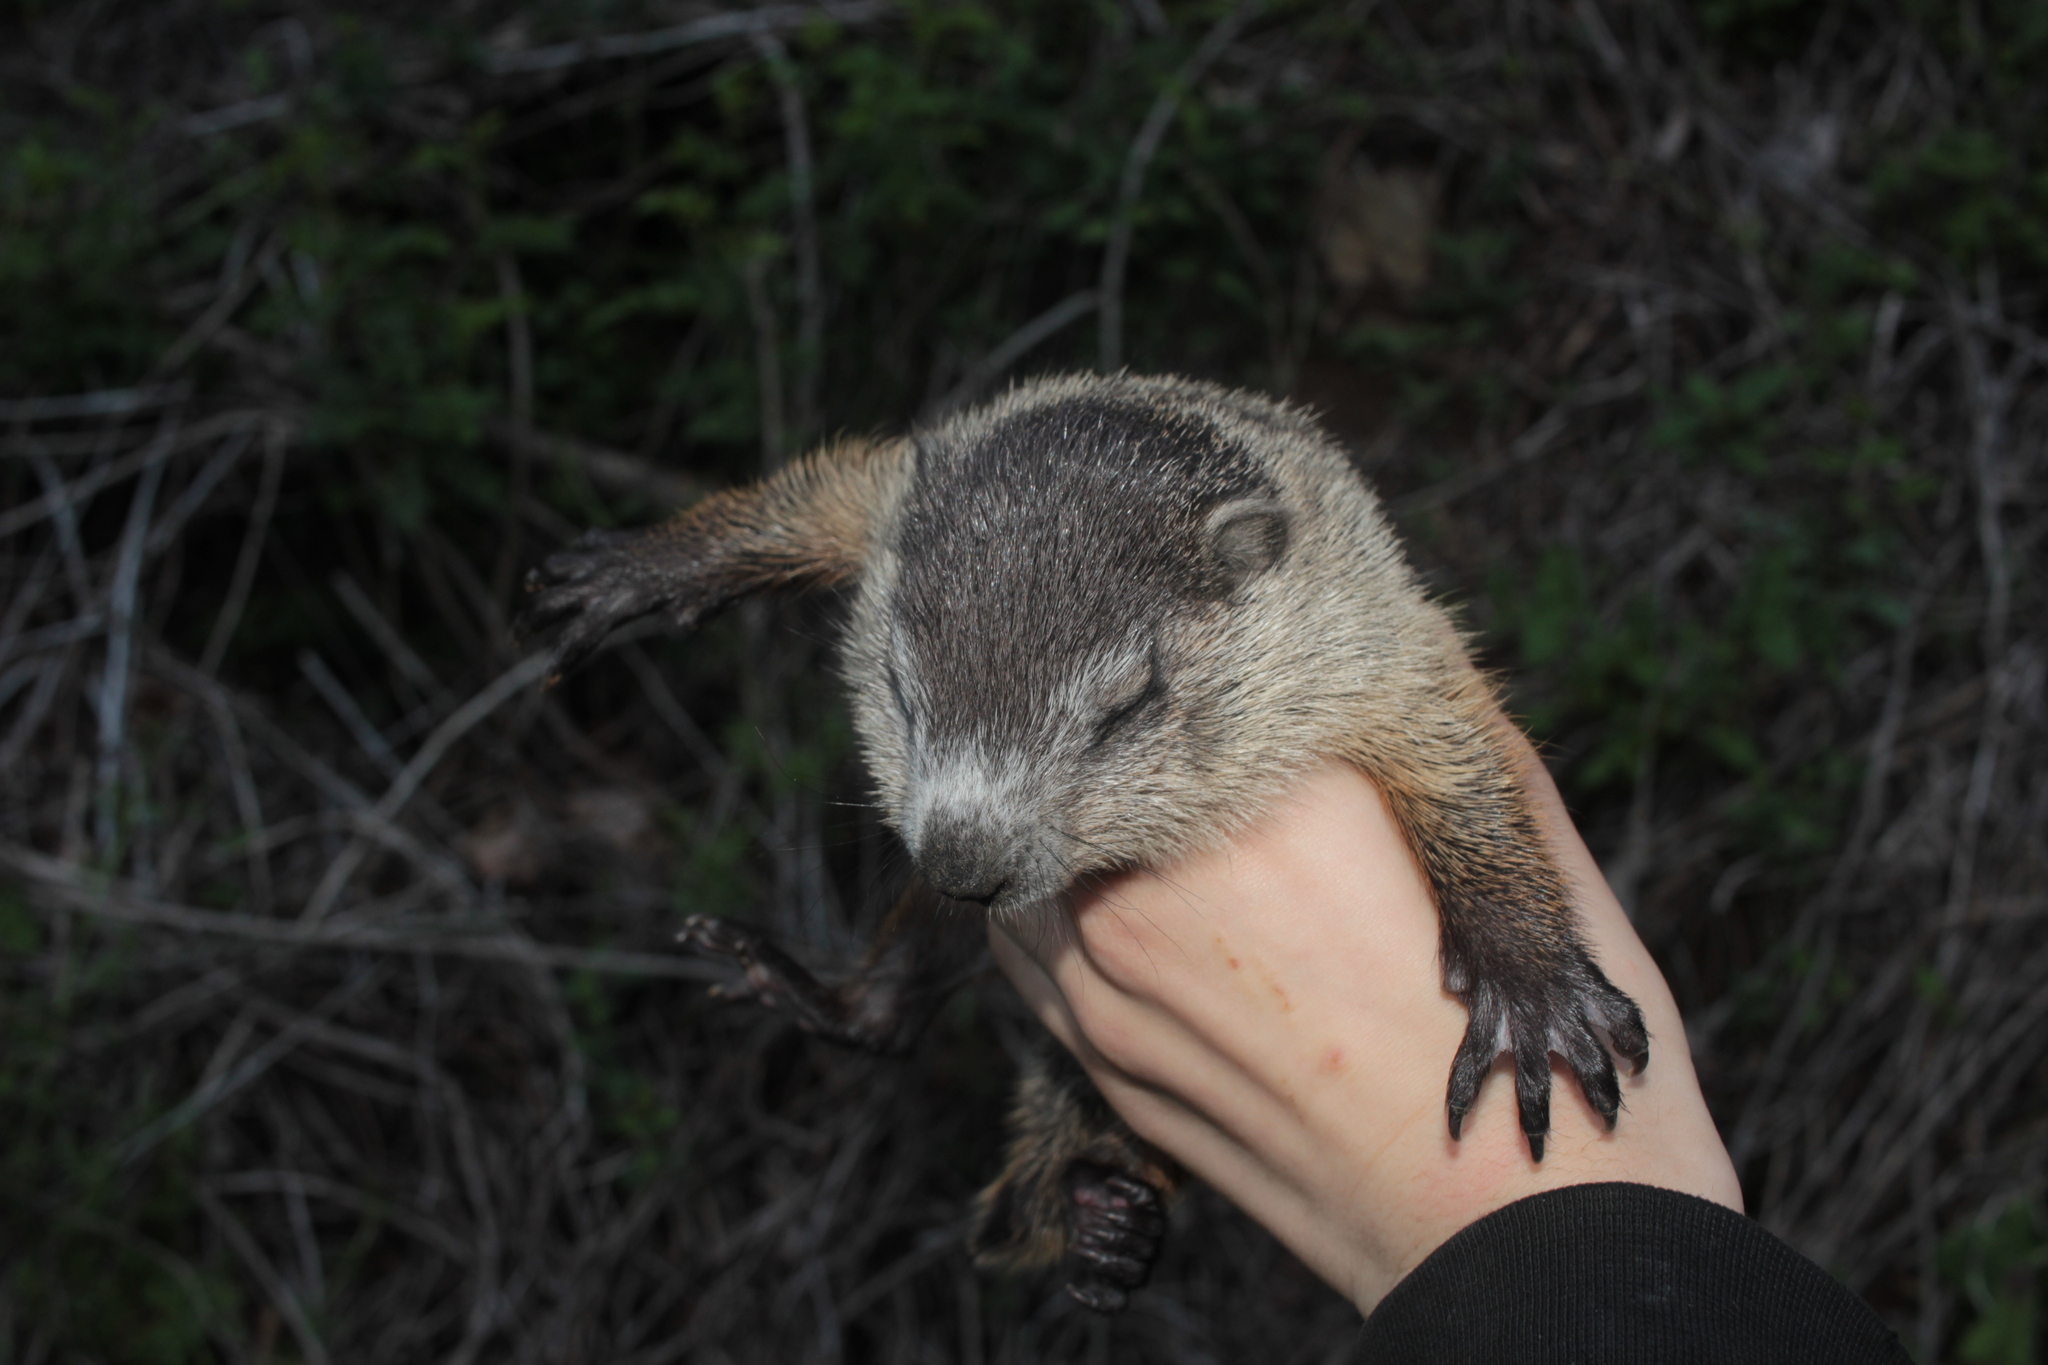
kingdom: Animalia
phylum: Chordata
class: Mammalia
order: Rodentia
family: Sciuridae
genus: Marmota
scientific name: Marmota monax
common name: Groundhog
